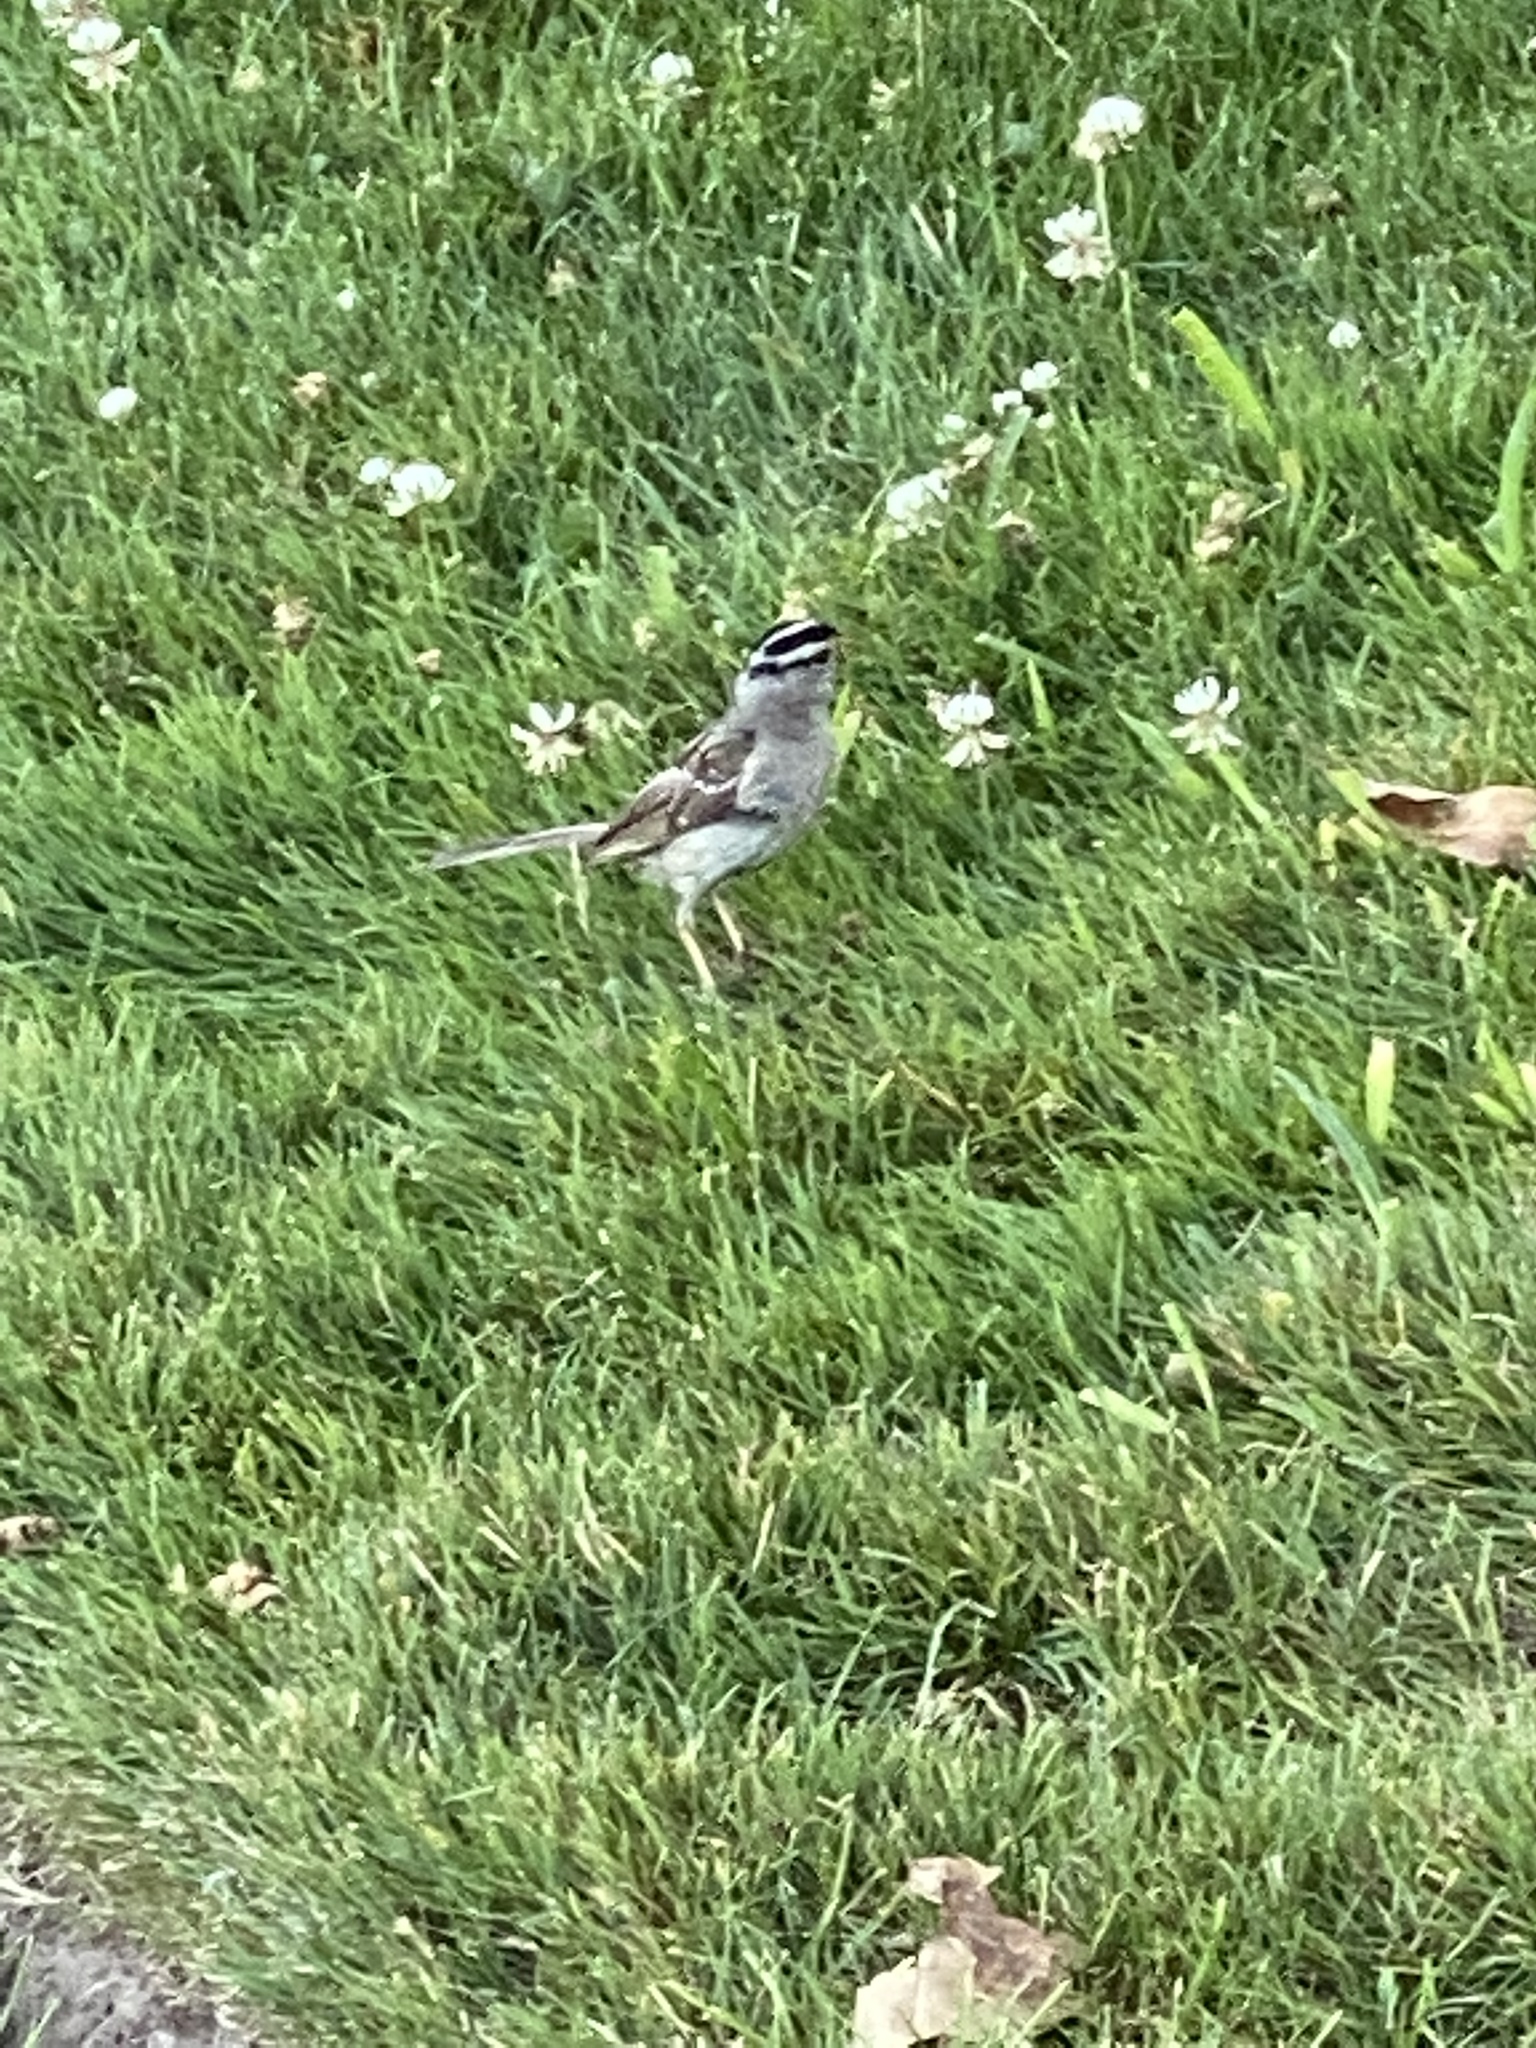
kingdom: Animalia
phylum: Chordata
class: Aves
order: Passeriformes
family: Passerellidae
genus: Zonotrichia
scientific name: Zonotrichia leucophrys
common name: White-crowned sparrow
